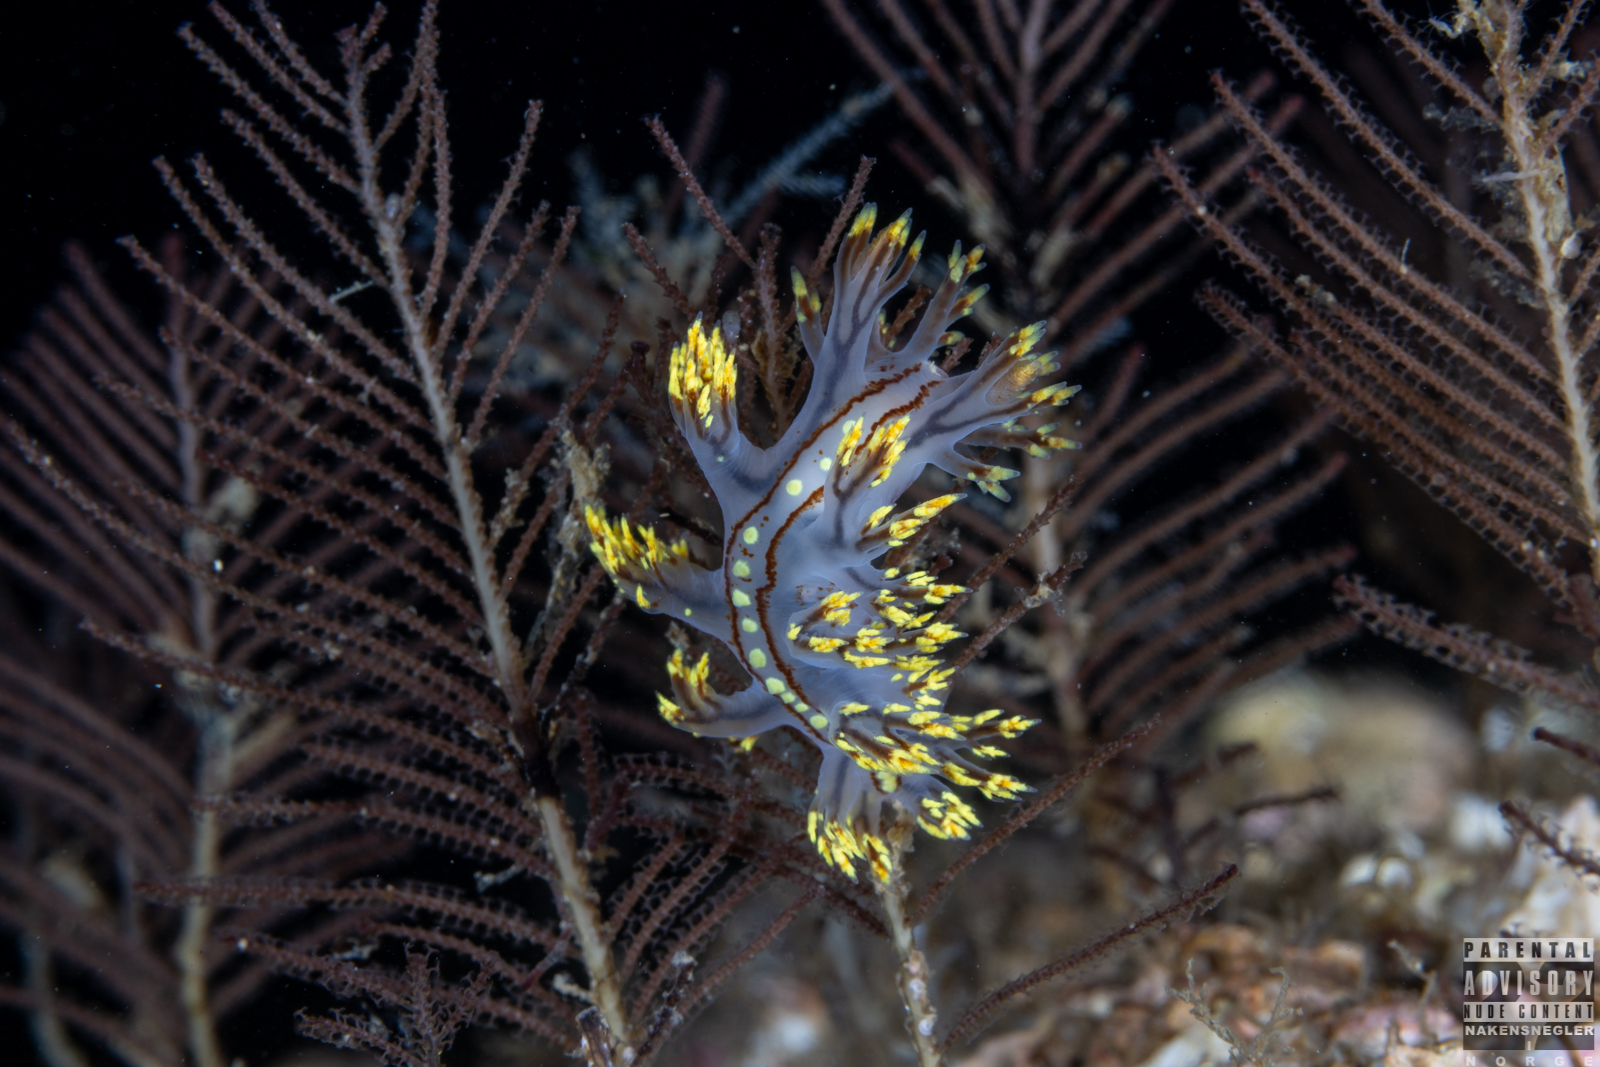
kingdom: Animalia
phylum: Mollusca
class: Gastropoda
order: Nudibranchia
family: Dendronotidae
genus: Dendronotus
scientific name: Dendronotus yrjargul
